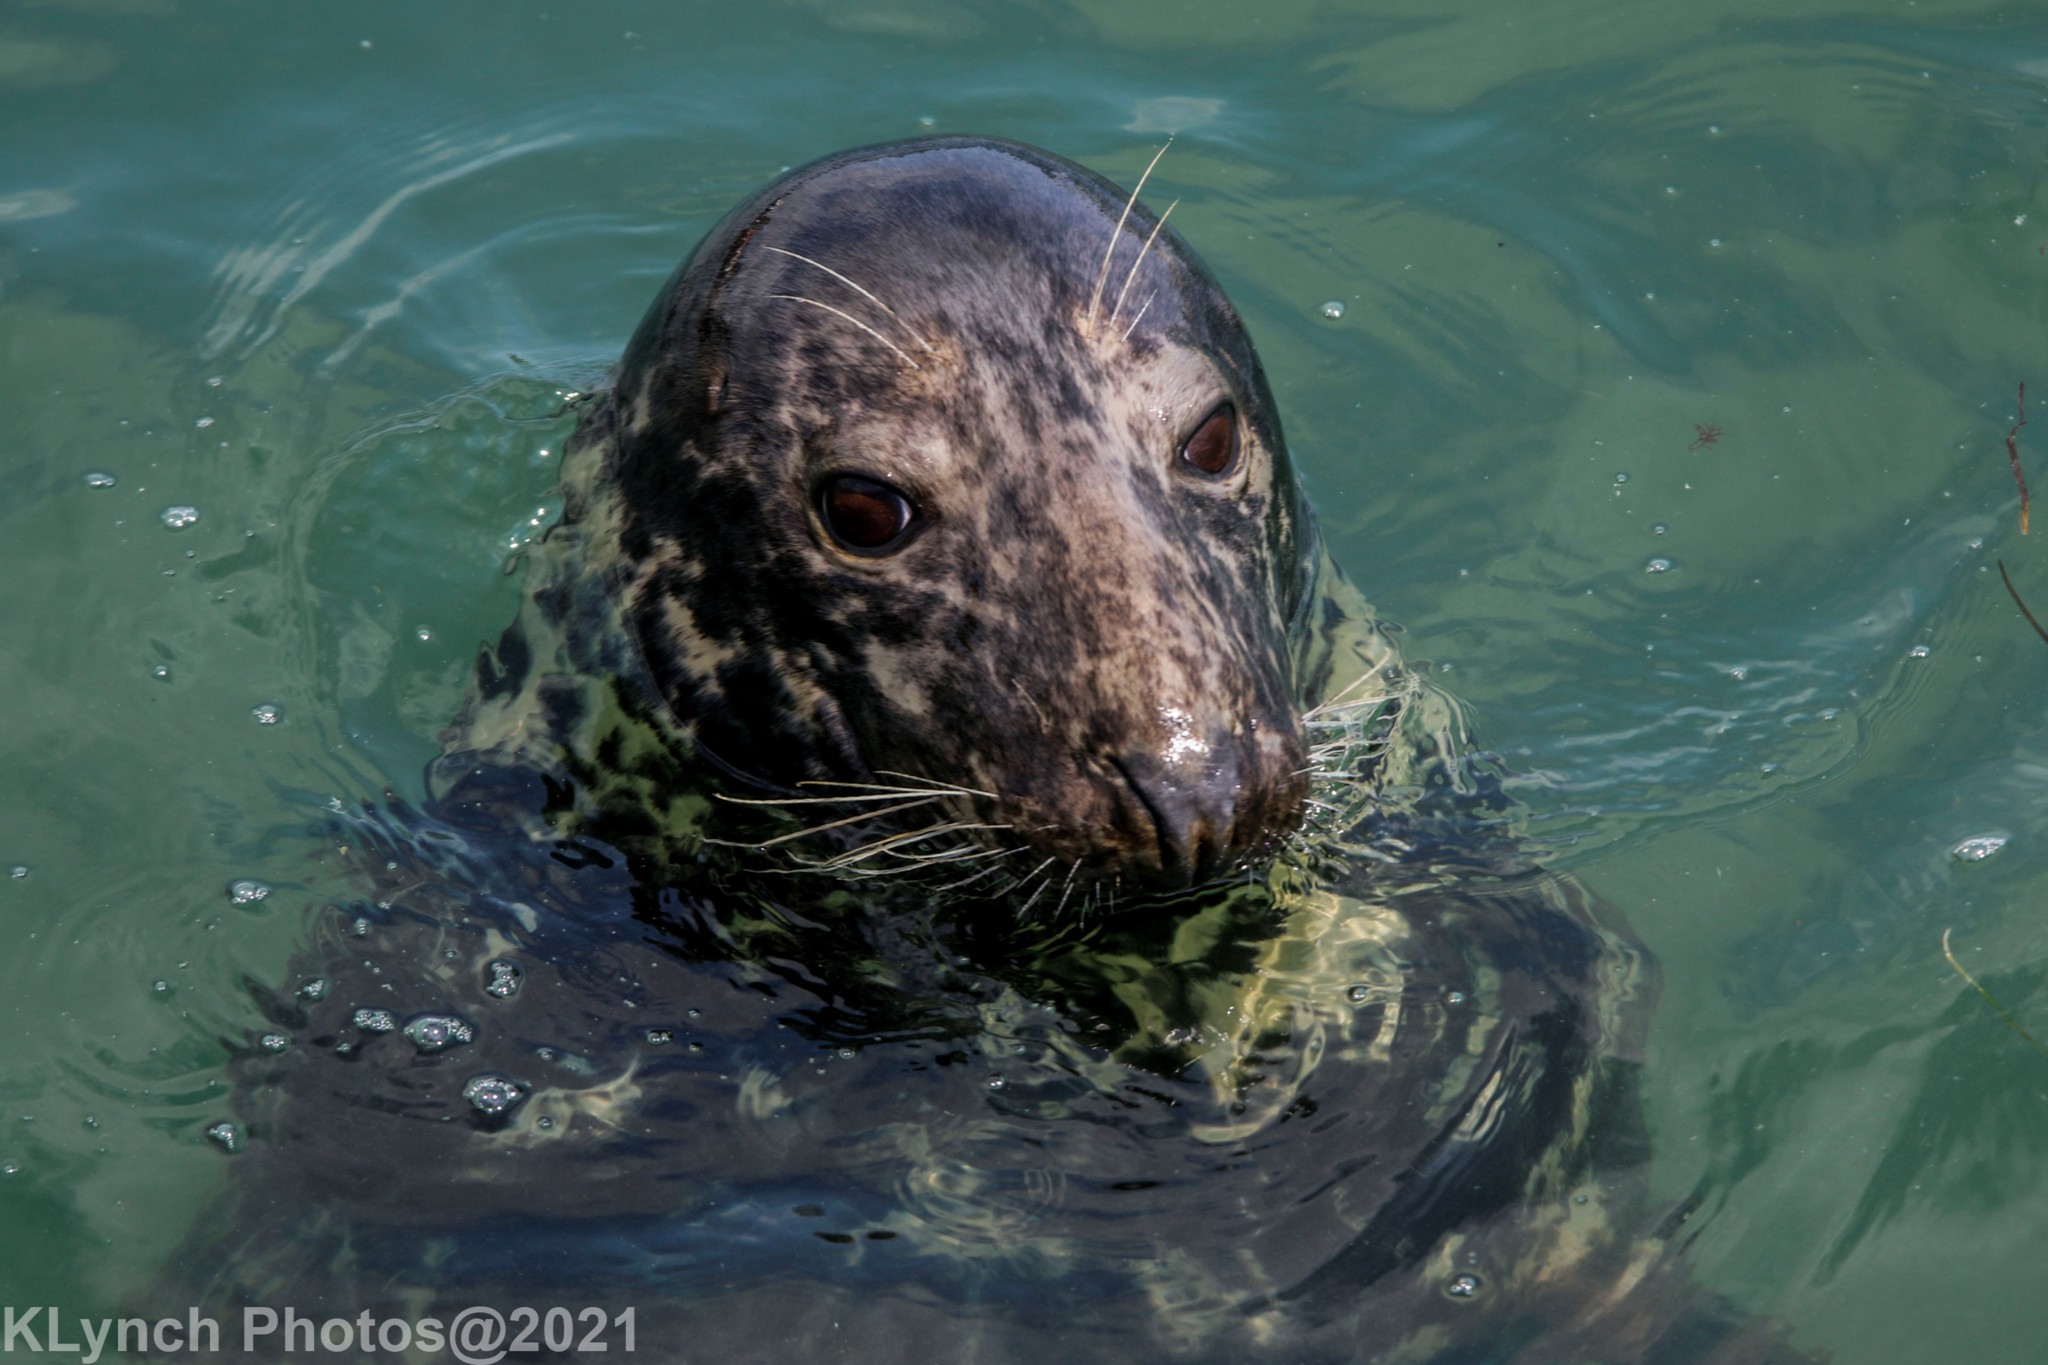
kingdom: Animalia
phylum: Chordata
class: Mammalia
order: Carnivora
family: Phocidae
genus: Halichoerus
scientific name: Halichoerus grypus
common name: Grey seal
